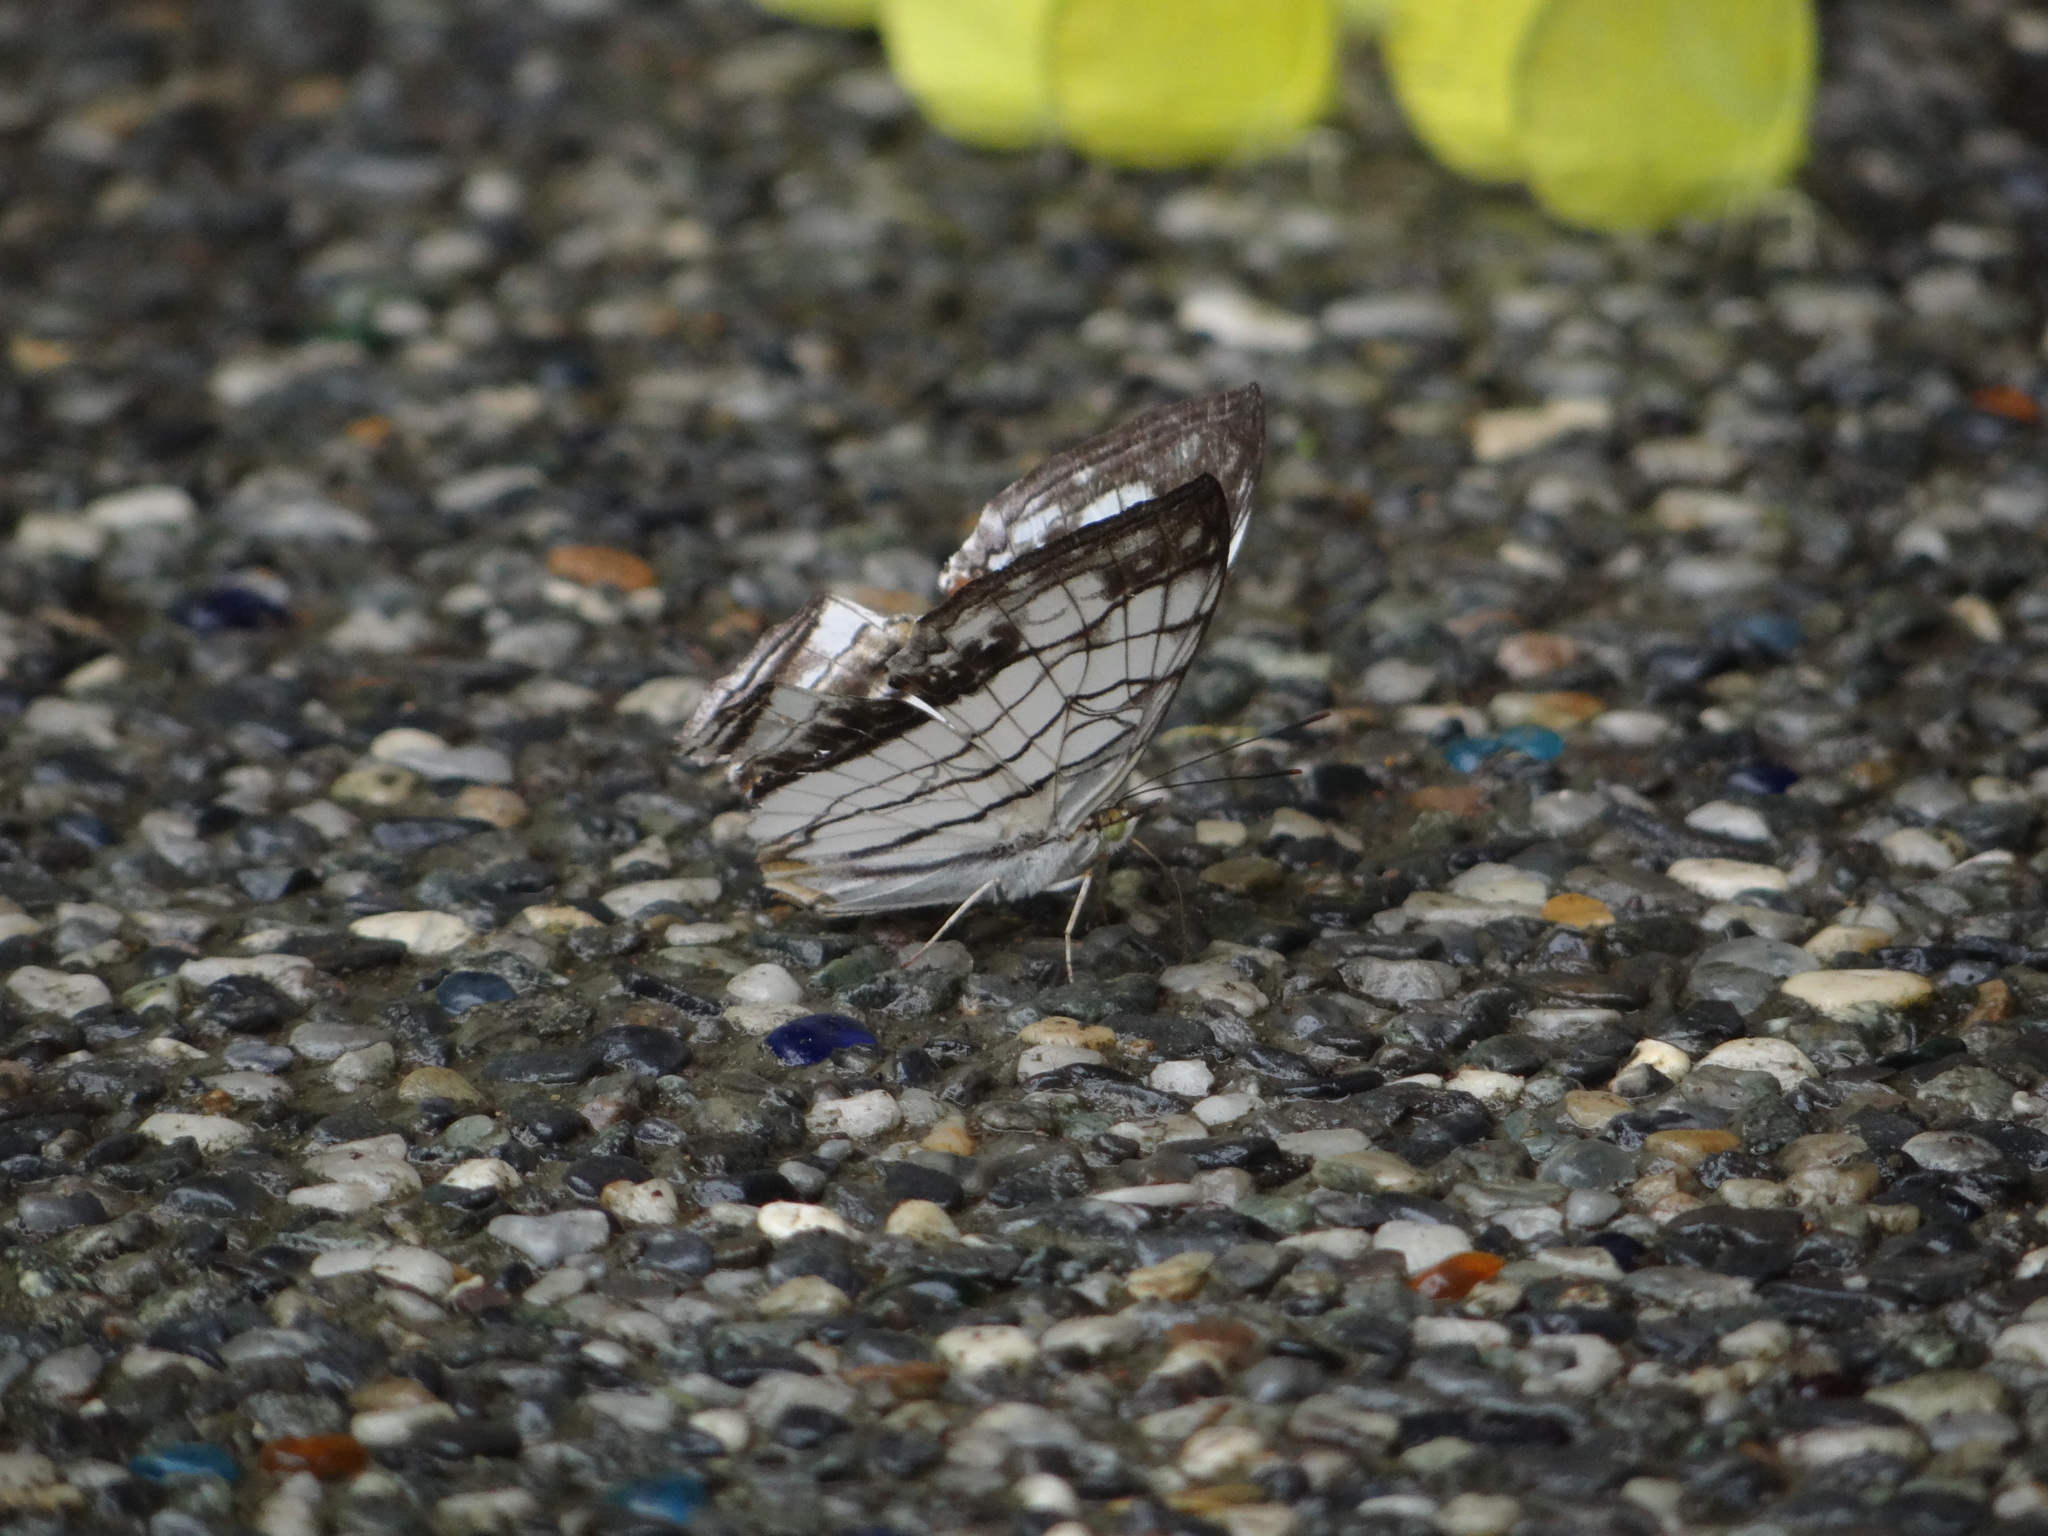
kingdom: Animalia
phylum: Arthropoda
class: Insecta
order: Lepidoptera
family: Nymphalidae
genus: Cyrestis
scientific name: Cyrestis thyodamas
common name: Common mapwing
